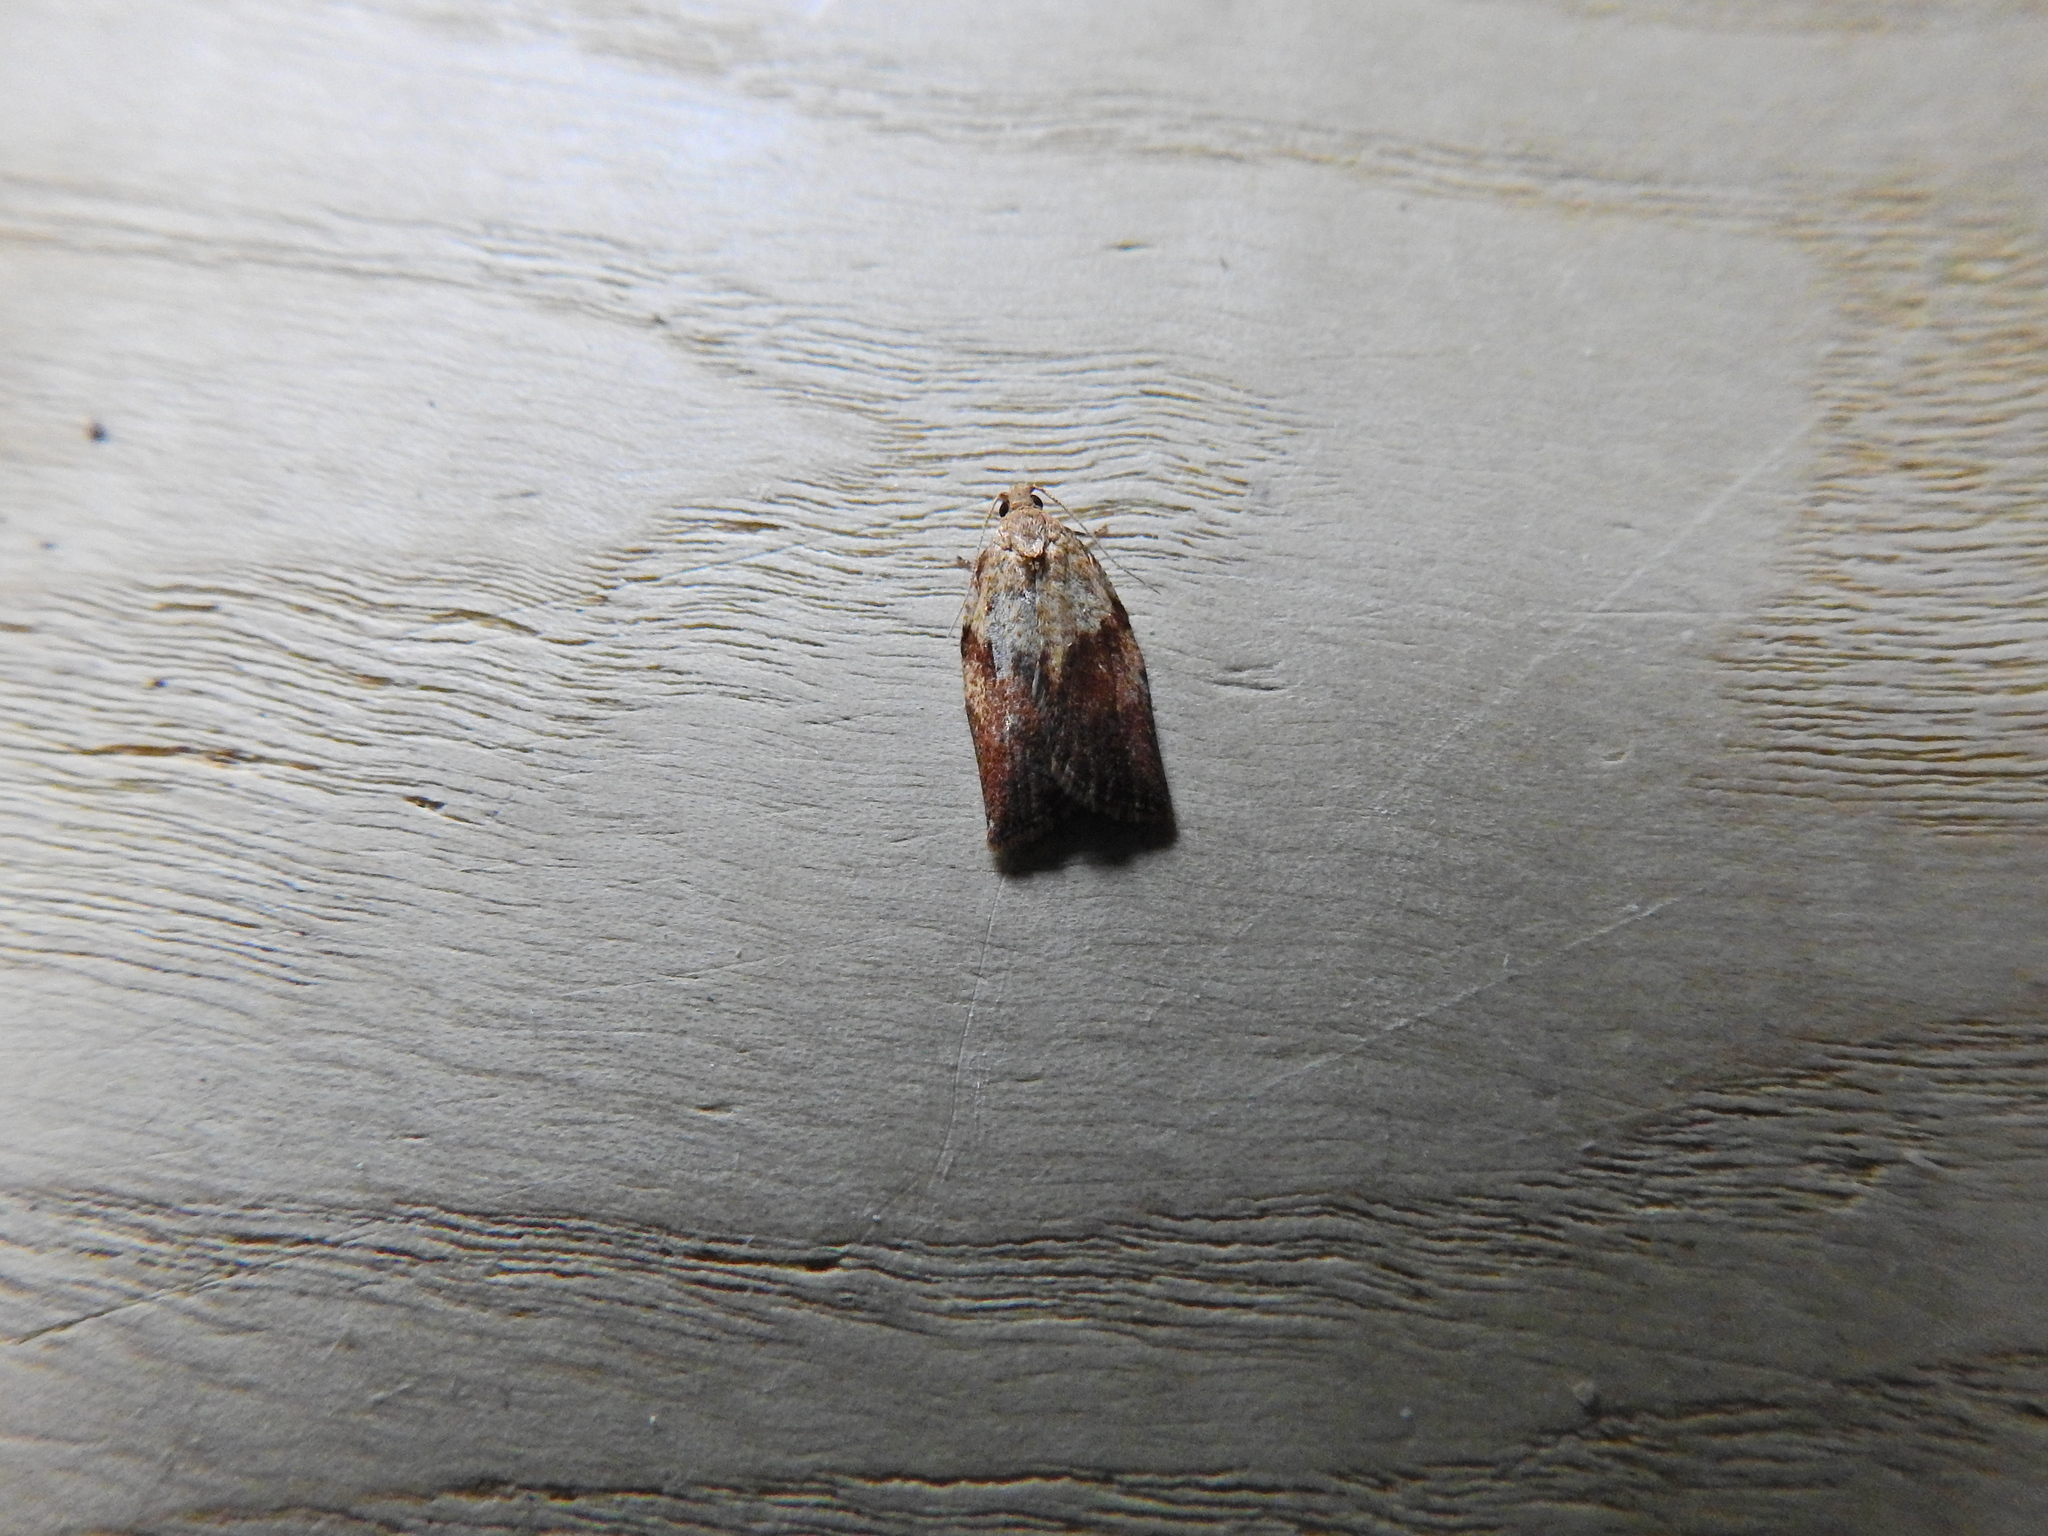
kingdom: Animalia
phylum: Arthropoda
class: Insecta
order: Lepidoptera
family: Tortricidae
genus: Epiphyas
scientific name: Epiphyas postvittana
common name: Light brown apple moth
